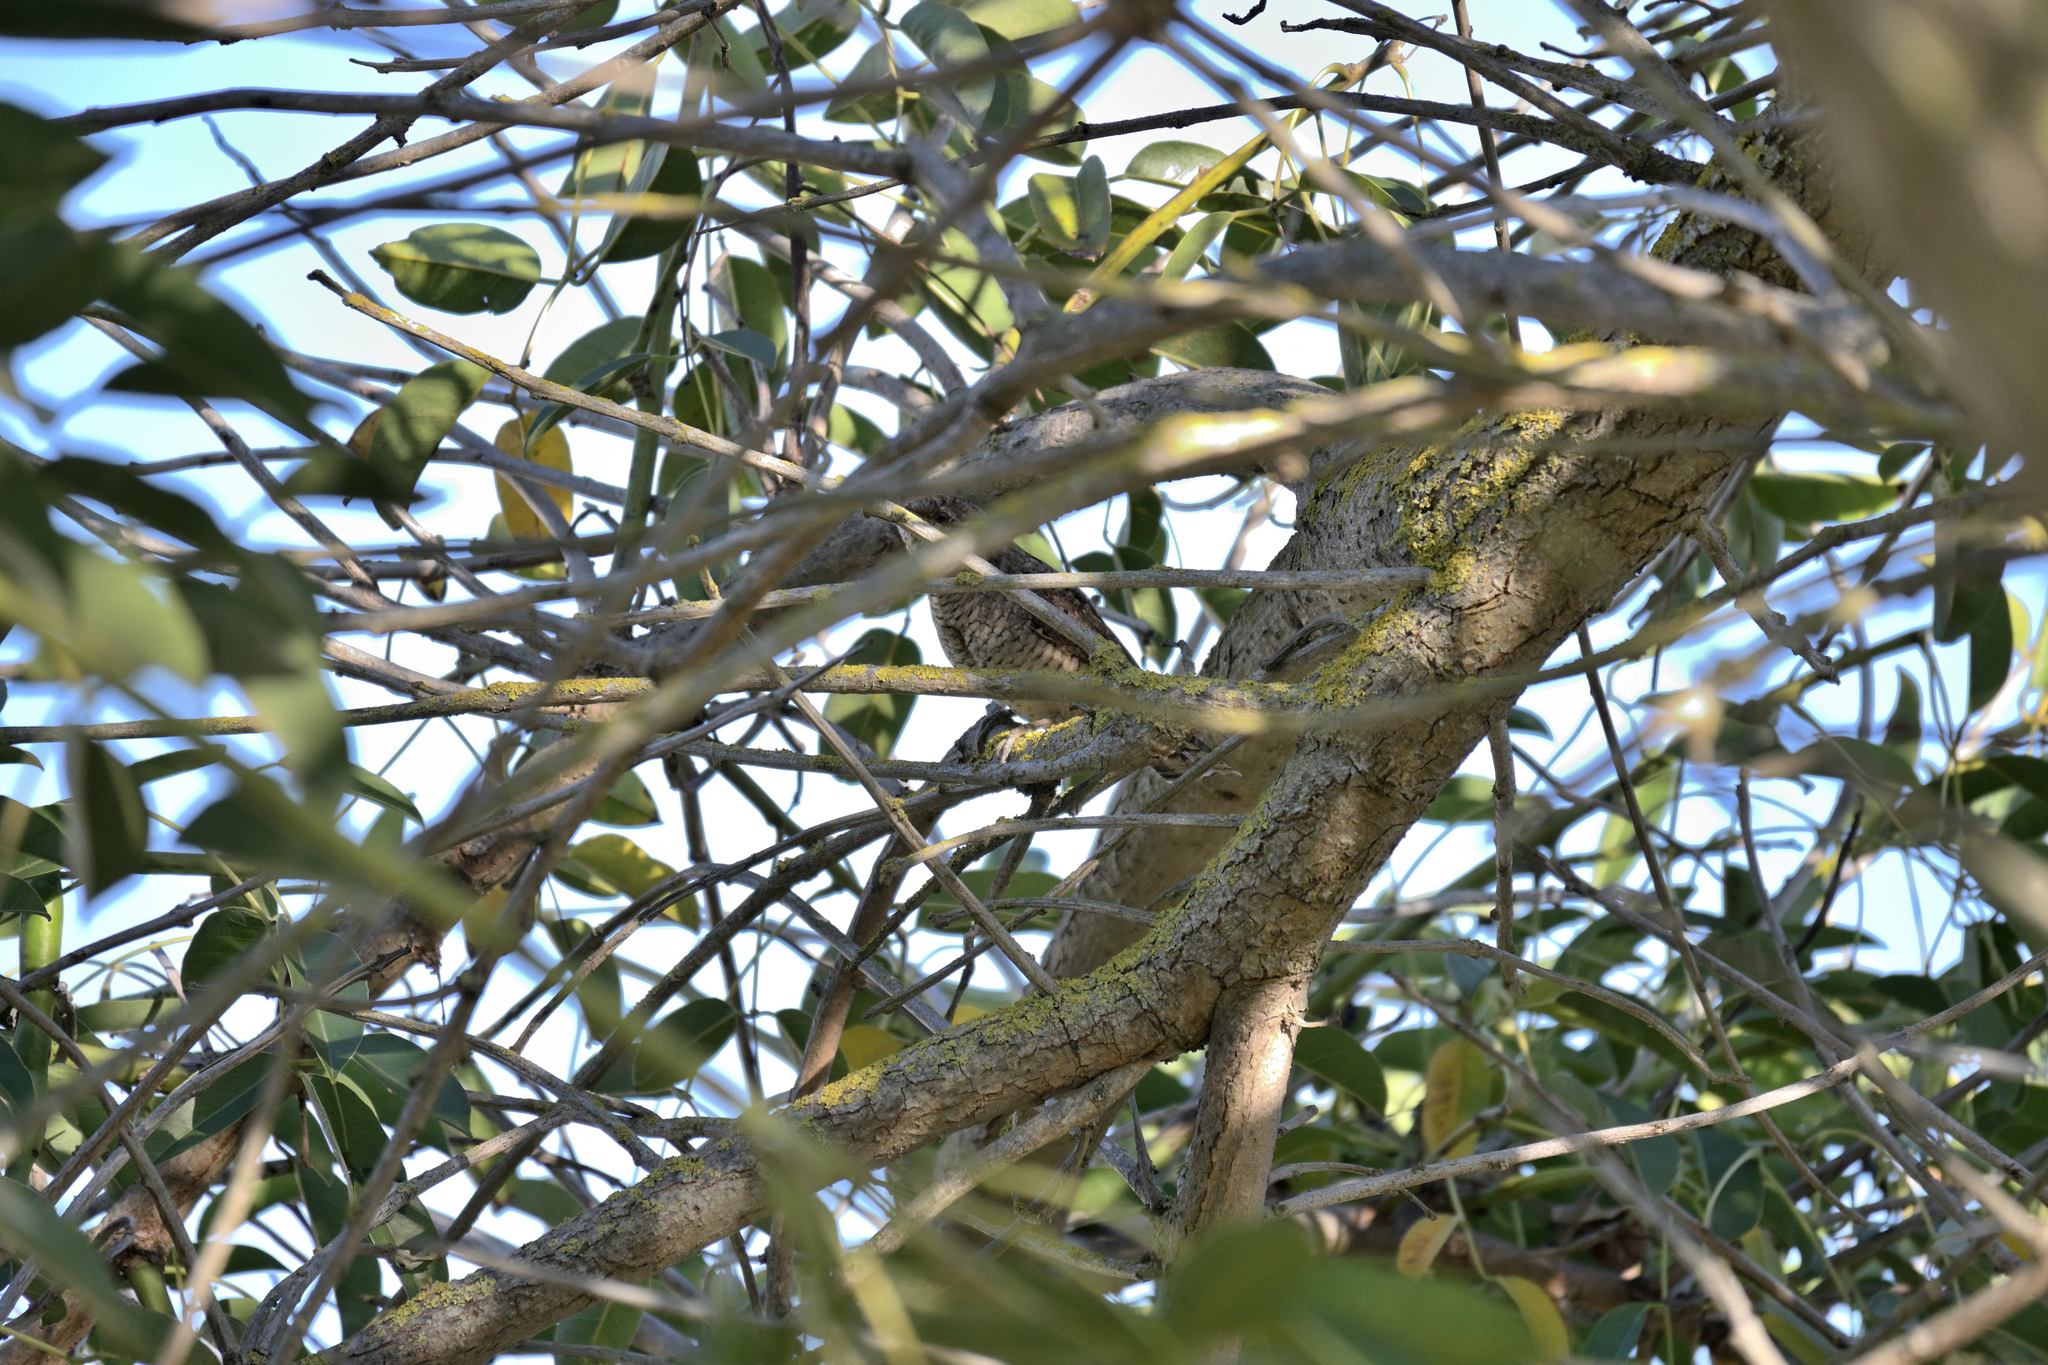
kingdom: Animalia
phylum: Chordata
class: Aves
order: Piciformes
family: Picidae
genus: Jynx
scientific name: Jynx torquilla
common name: Eurasian wryneck
